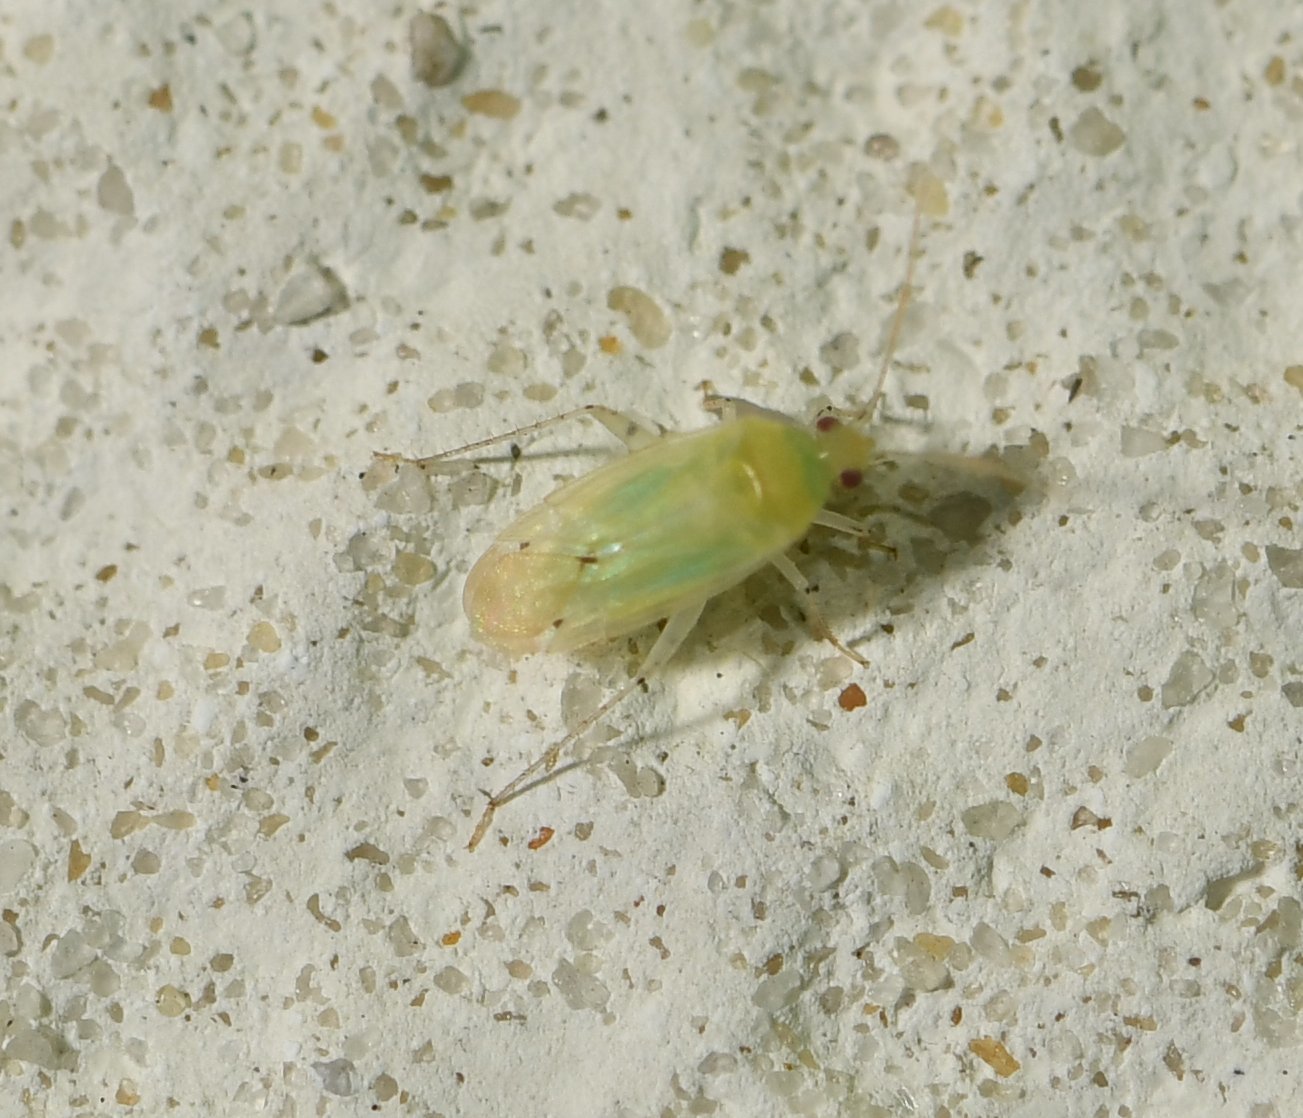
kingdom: Animalia
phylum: Arthropoda
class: Insecta
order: Hemiptera
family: Miridae
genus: Americodema
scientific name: Americodema nigrolineatum
